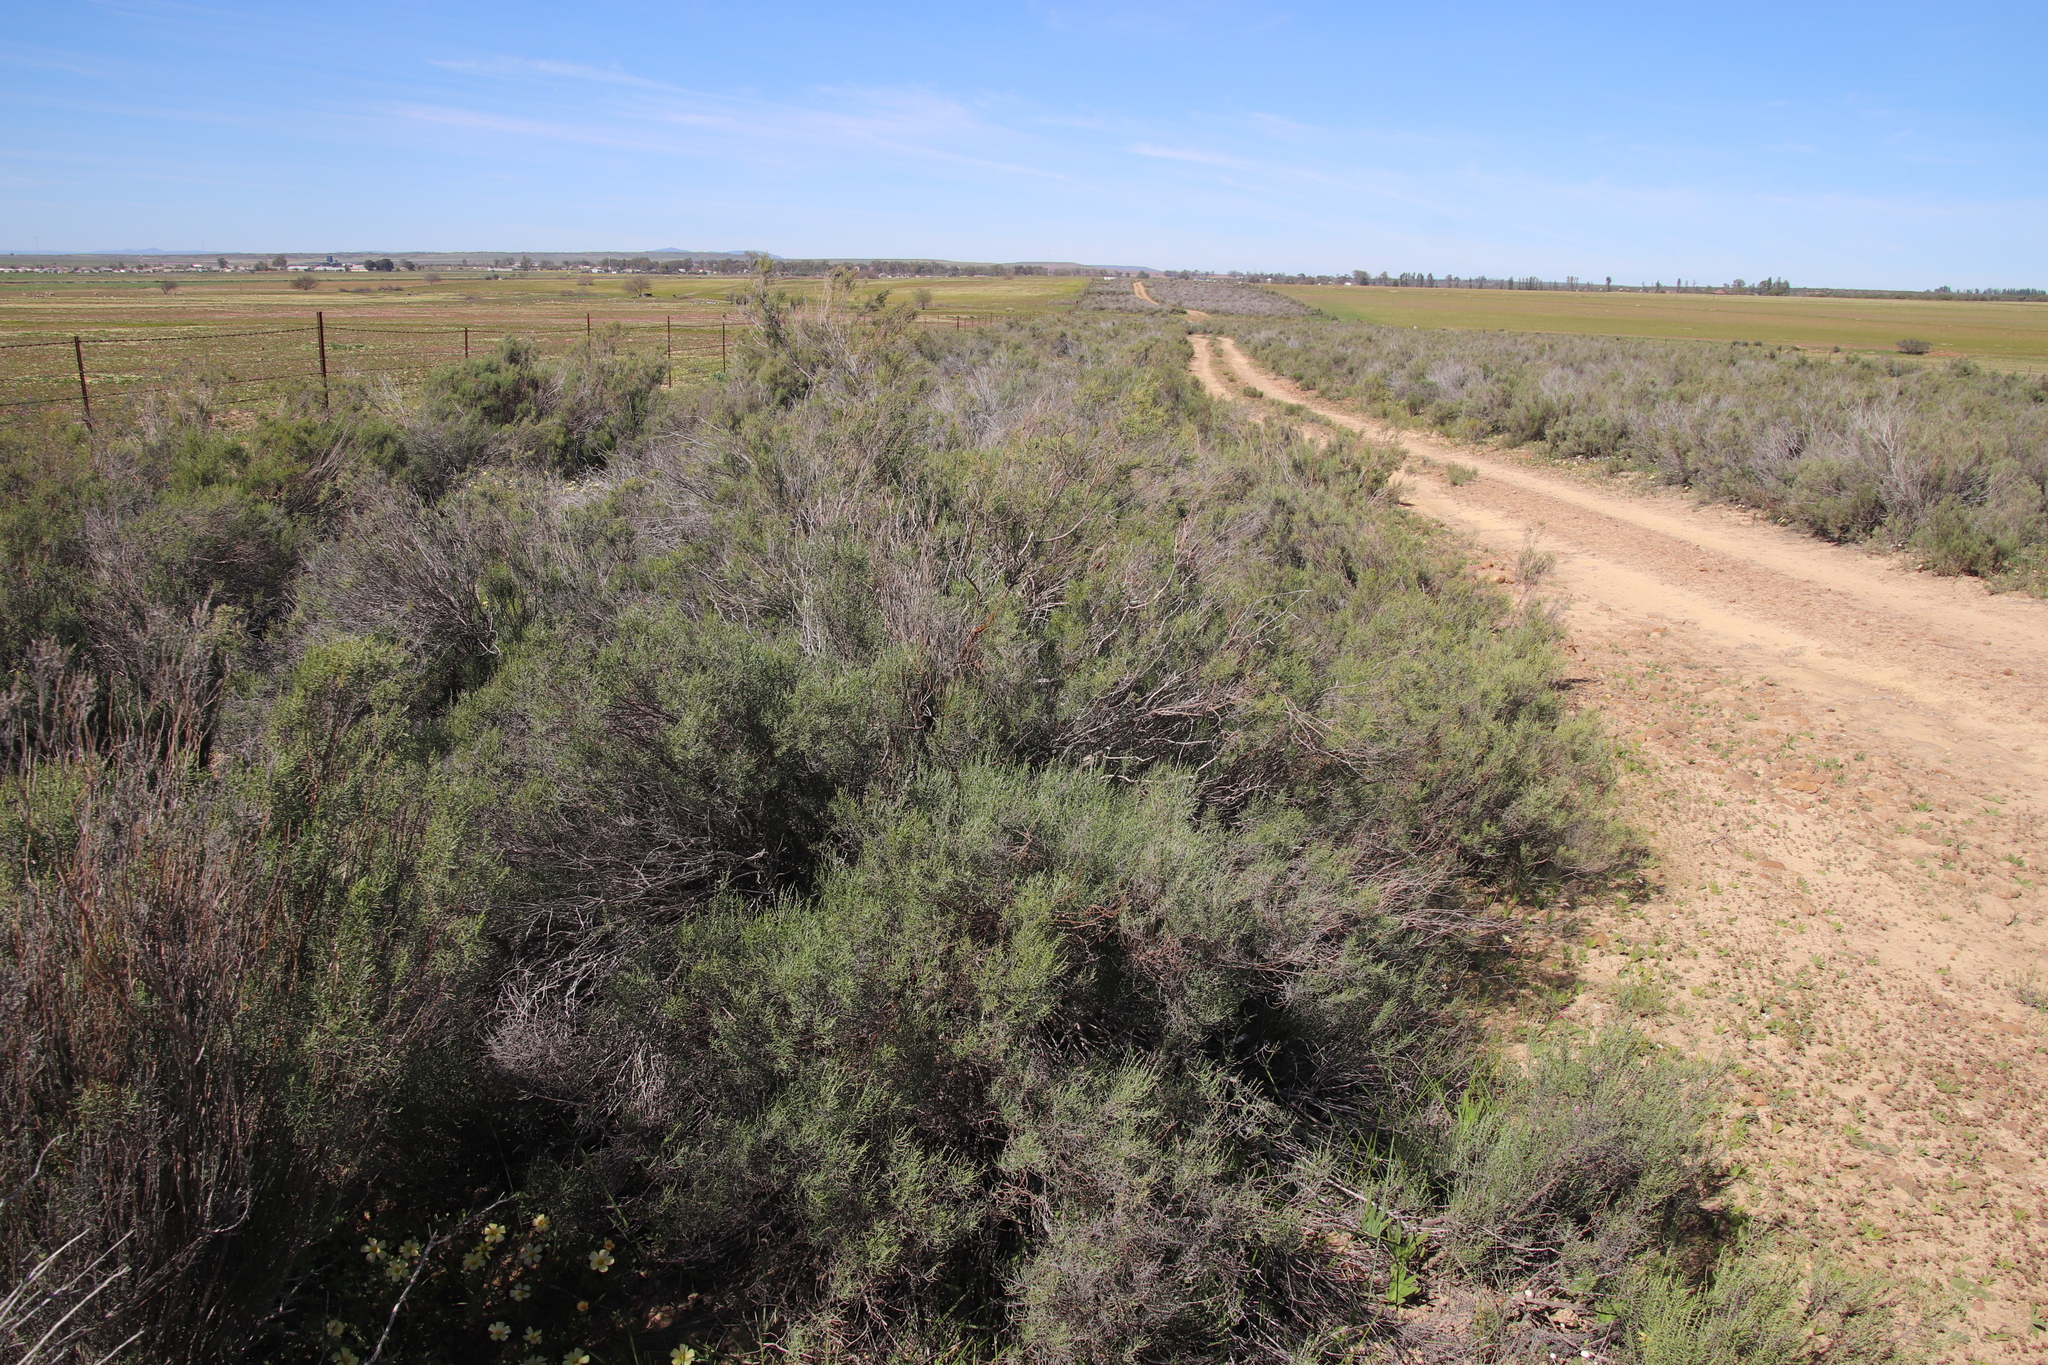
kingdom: Plantae
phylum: Tracheophyta
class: Magnoliopsida
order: Asterales
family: Asteraceae
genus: Dicerothamnus
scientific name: Dicerothamnus rhinocerotis
